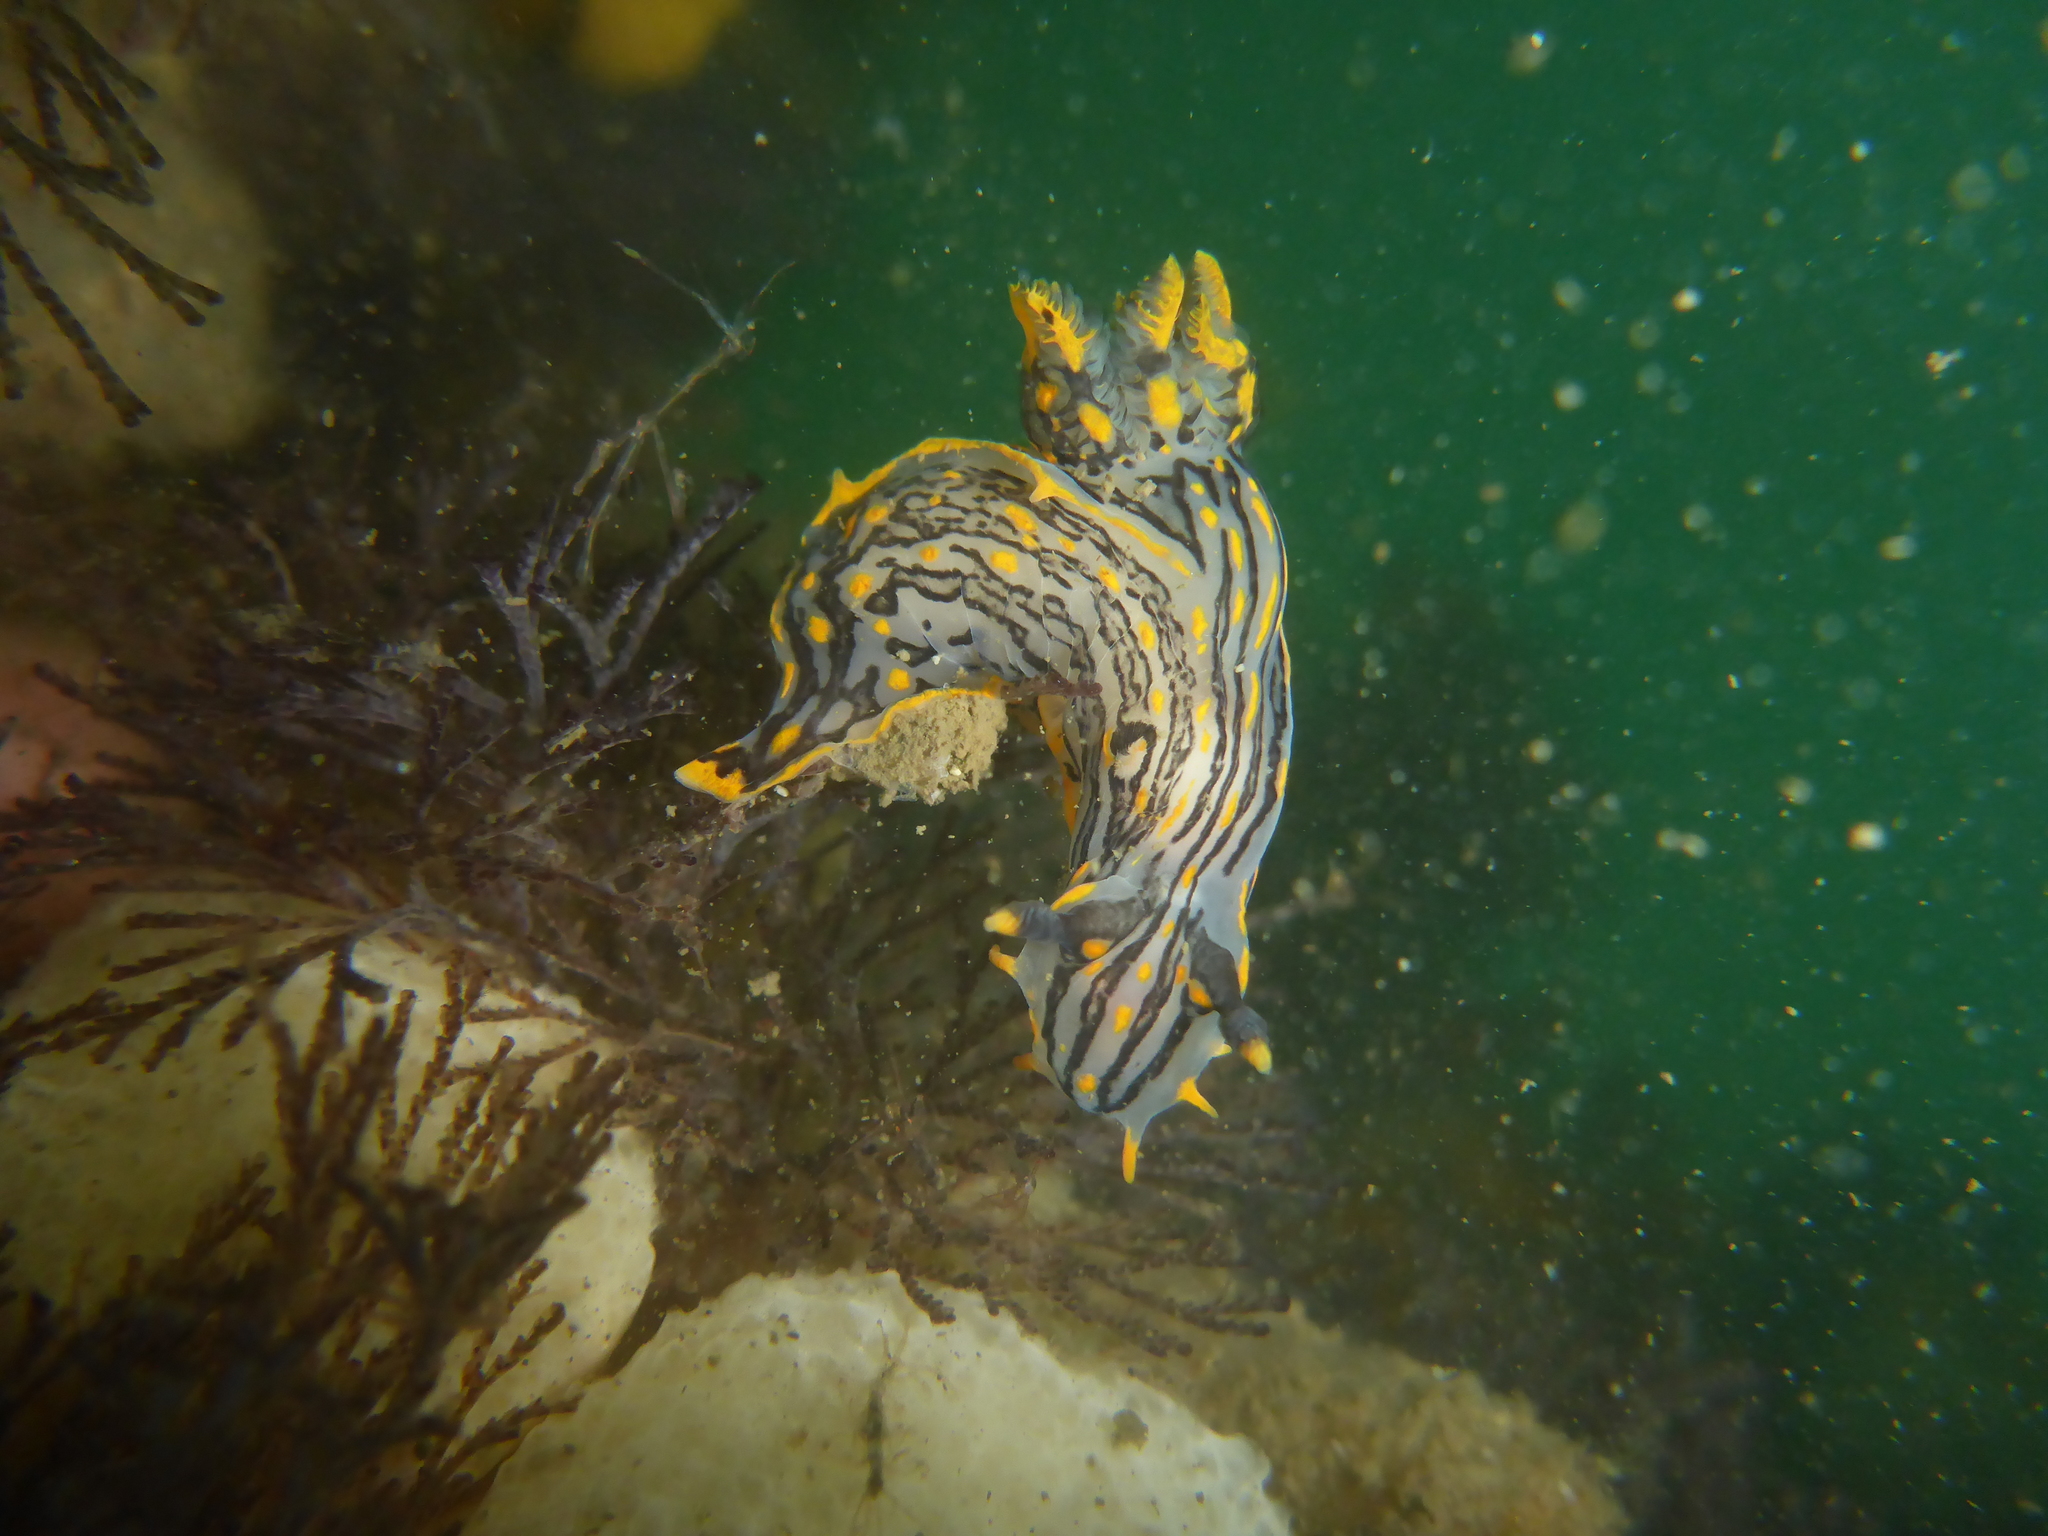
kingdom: Animalia
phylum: Mollusca
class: Gastropoda
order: Nudibranchia
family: Polyceridae
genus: Polycera
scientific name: Polycera atra
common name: Orange-spike polycera
